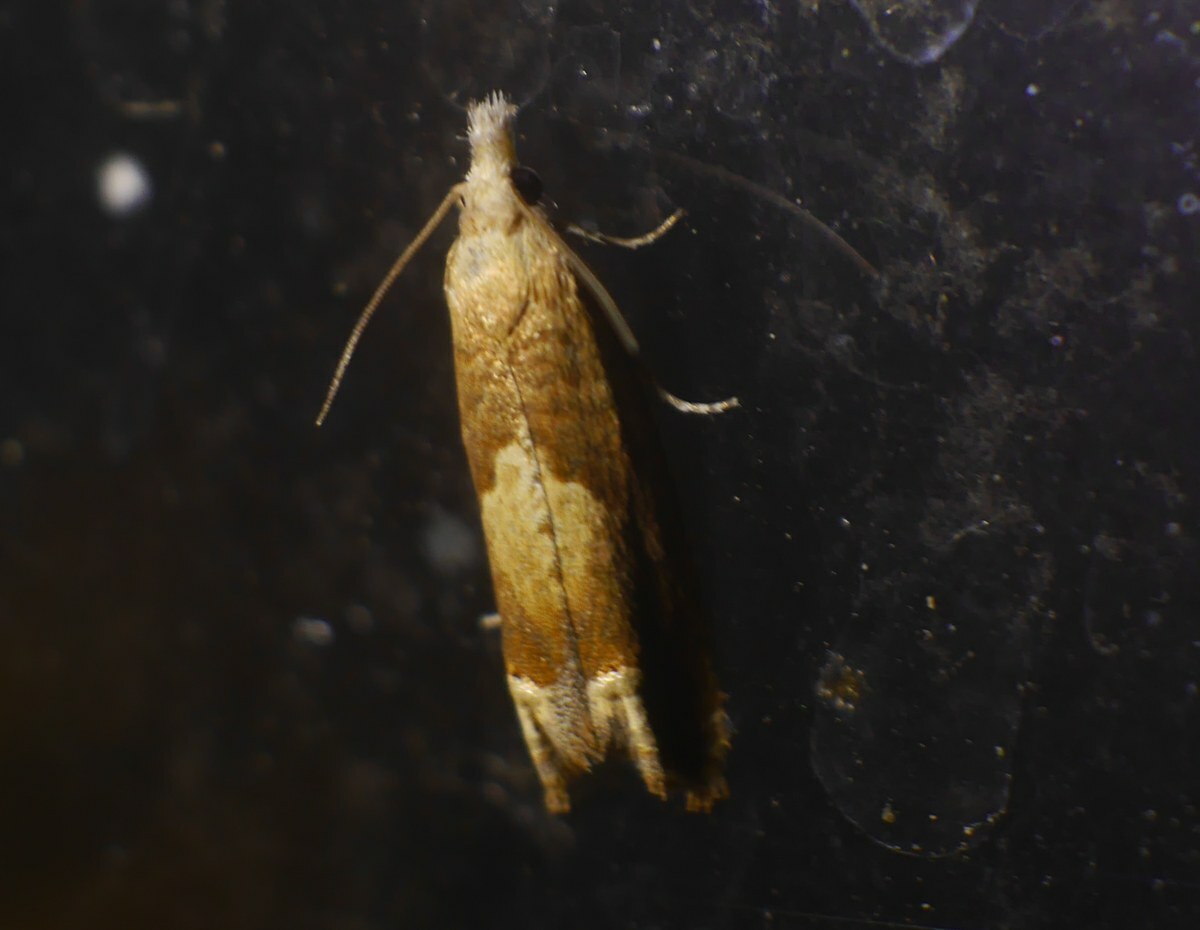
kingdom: Animalia
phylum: Arthropoda
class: Insecta
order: Lepidoptera
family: Tortricidae
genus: Eucosma
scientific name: Eucosma conterminana
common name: Pale lettuce bell
